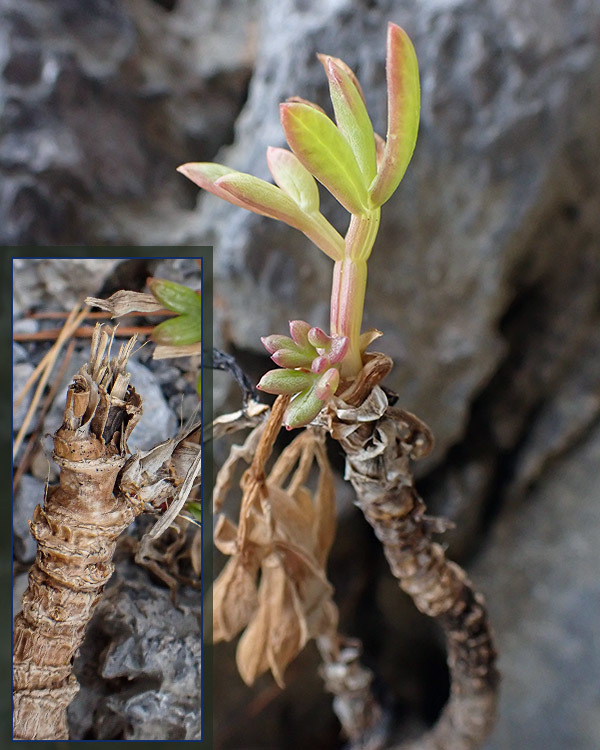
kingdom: Plantae
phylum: Tracheophyta
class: Magnoliopsida
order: Apiales
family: Apiaceae
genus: Crithmum
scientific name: Crithmum maritimum
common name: Rock samphire
